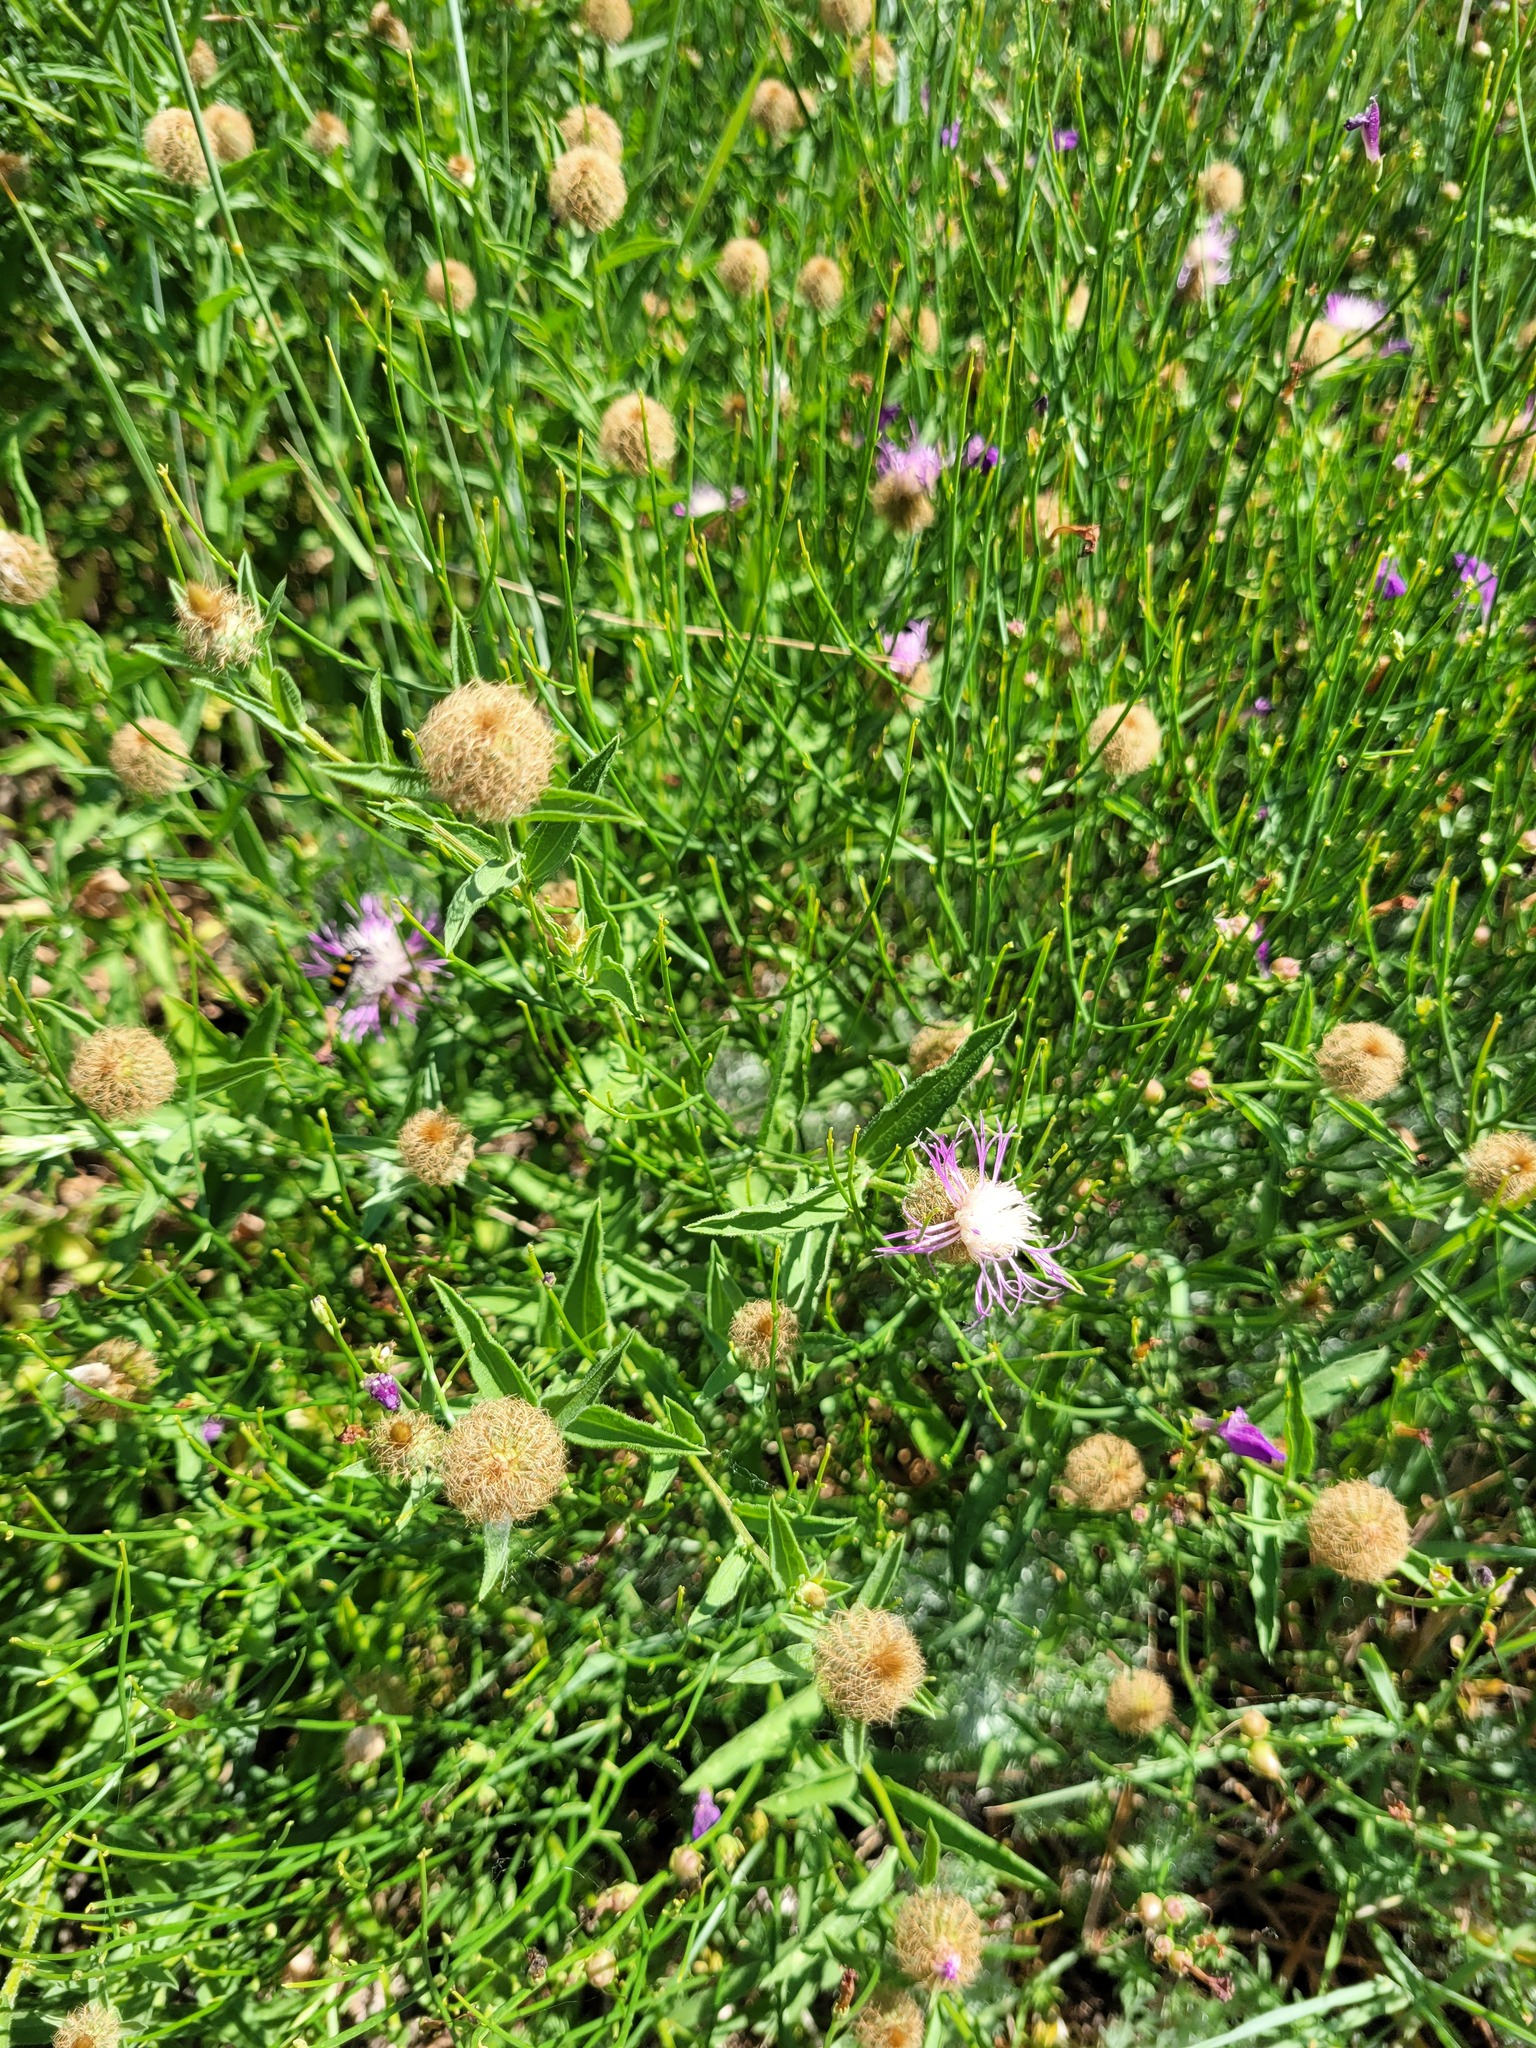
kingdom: Plantae
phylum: Tracheophyta
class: Magnoliopsida
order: Asterales
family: Asteraceae
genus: Centaurea
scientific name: Centaurea trichocephala
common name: Feather-head knapweed
